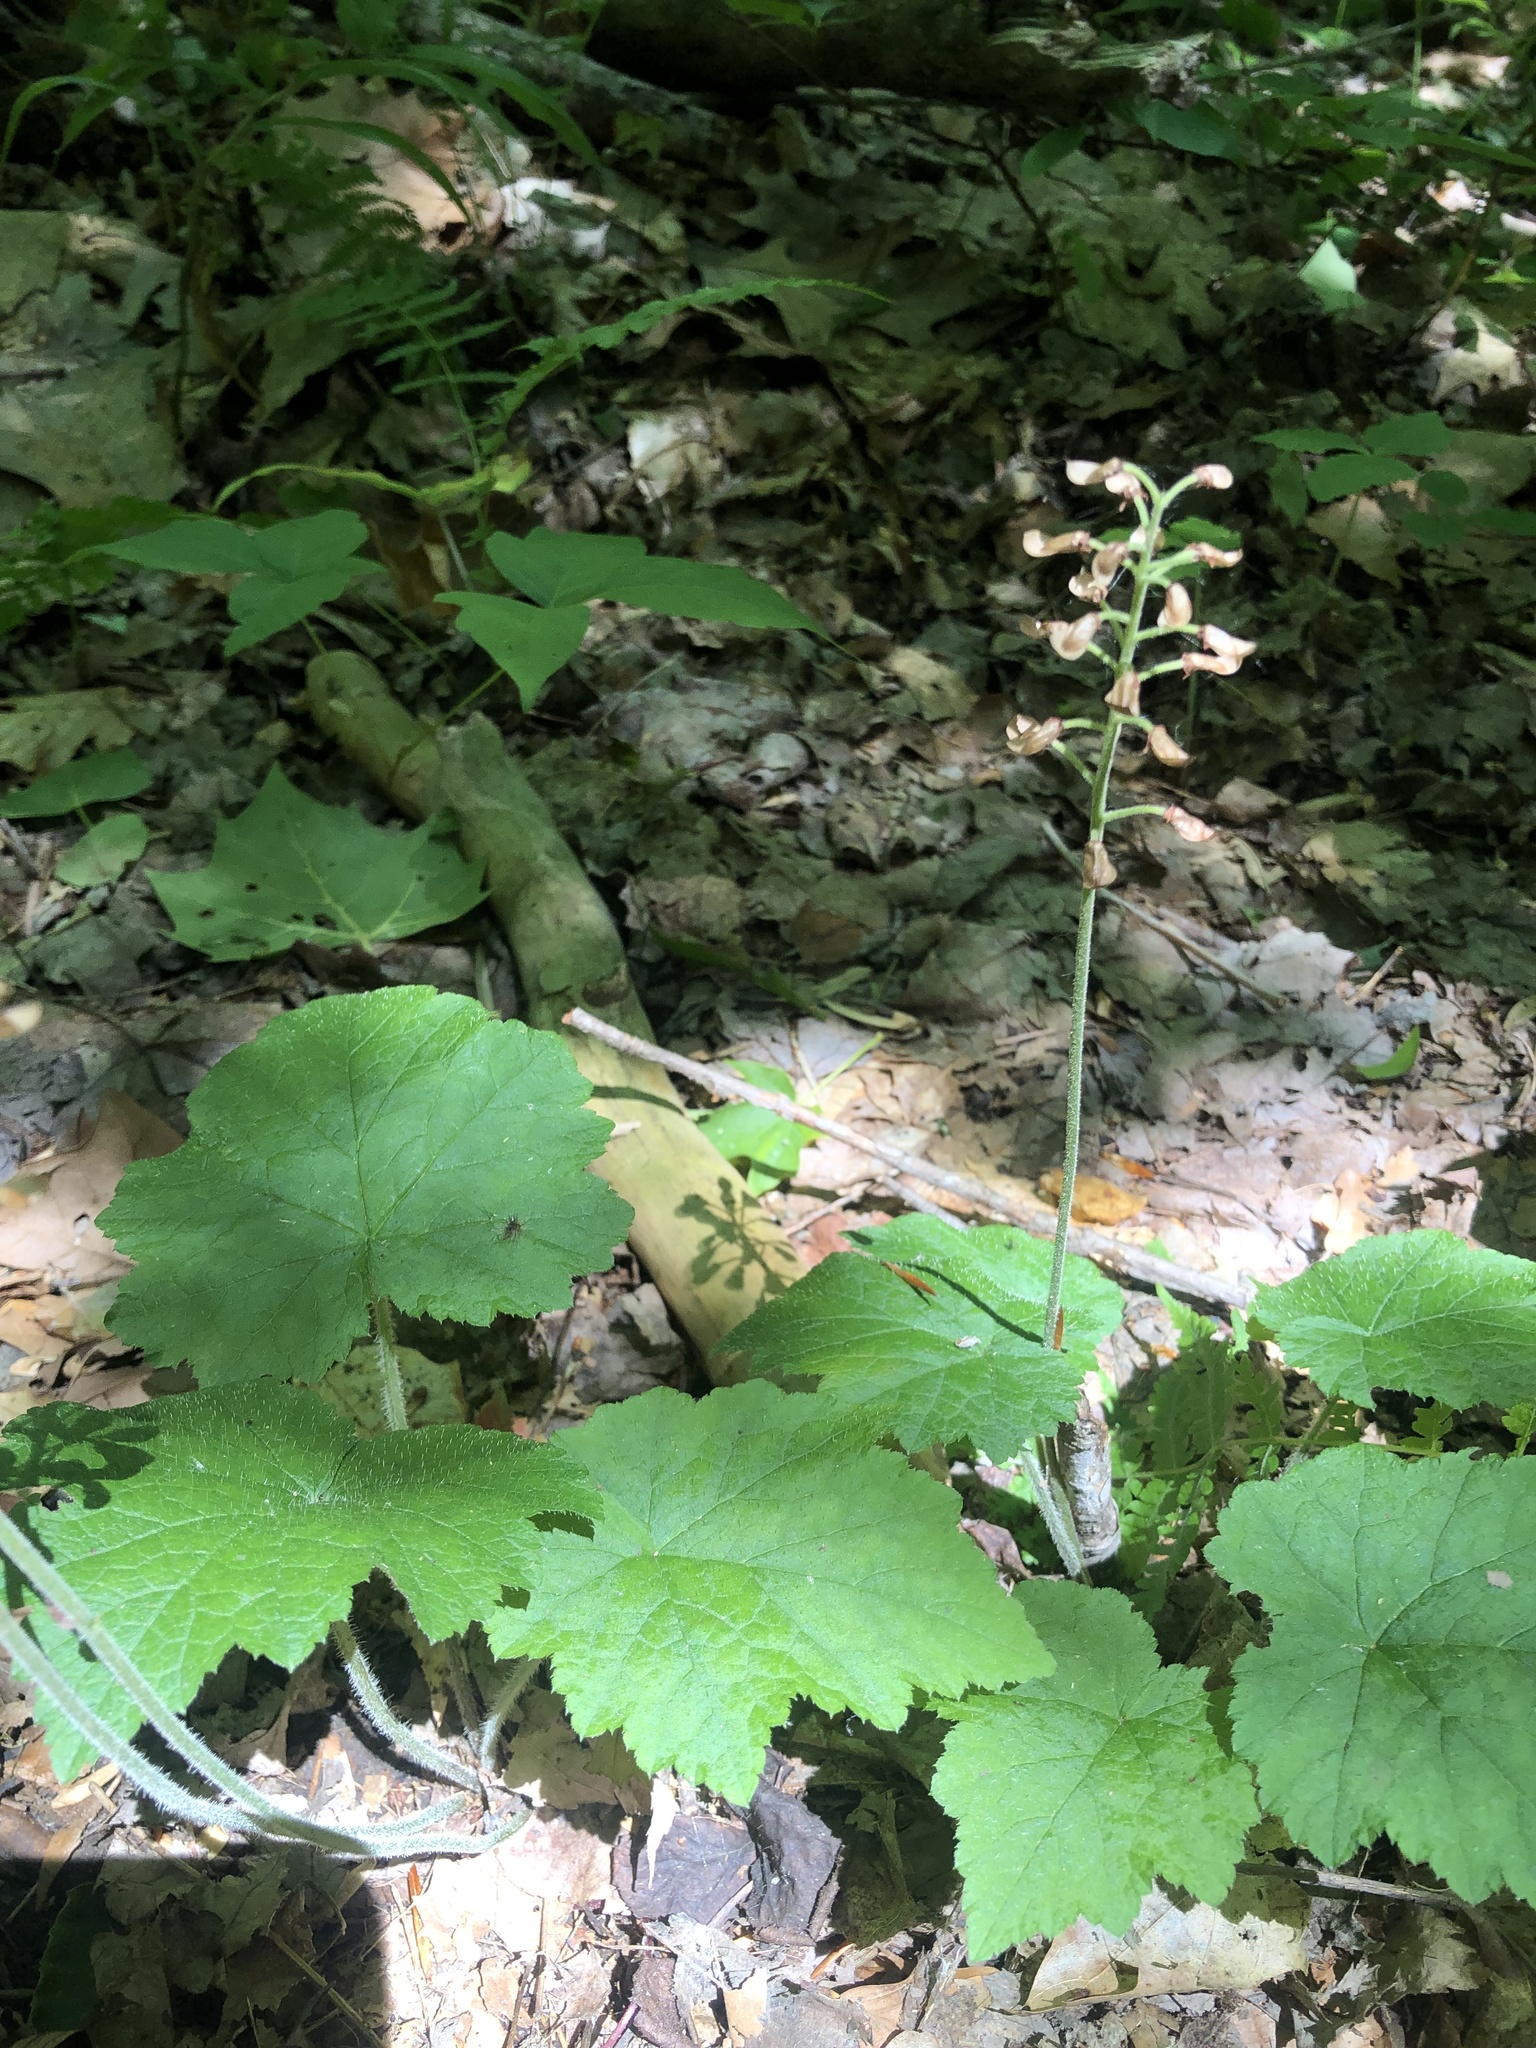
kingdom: Plantae
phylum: Tracheophyta
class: Magnoliopsida
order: Saxifragales
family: Saxifragaceae
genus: Tiarella
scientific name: Tiarella stolonifera
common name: Stoloniferous foamflower
